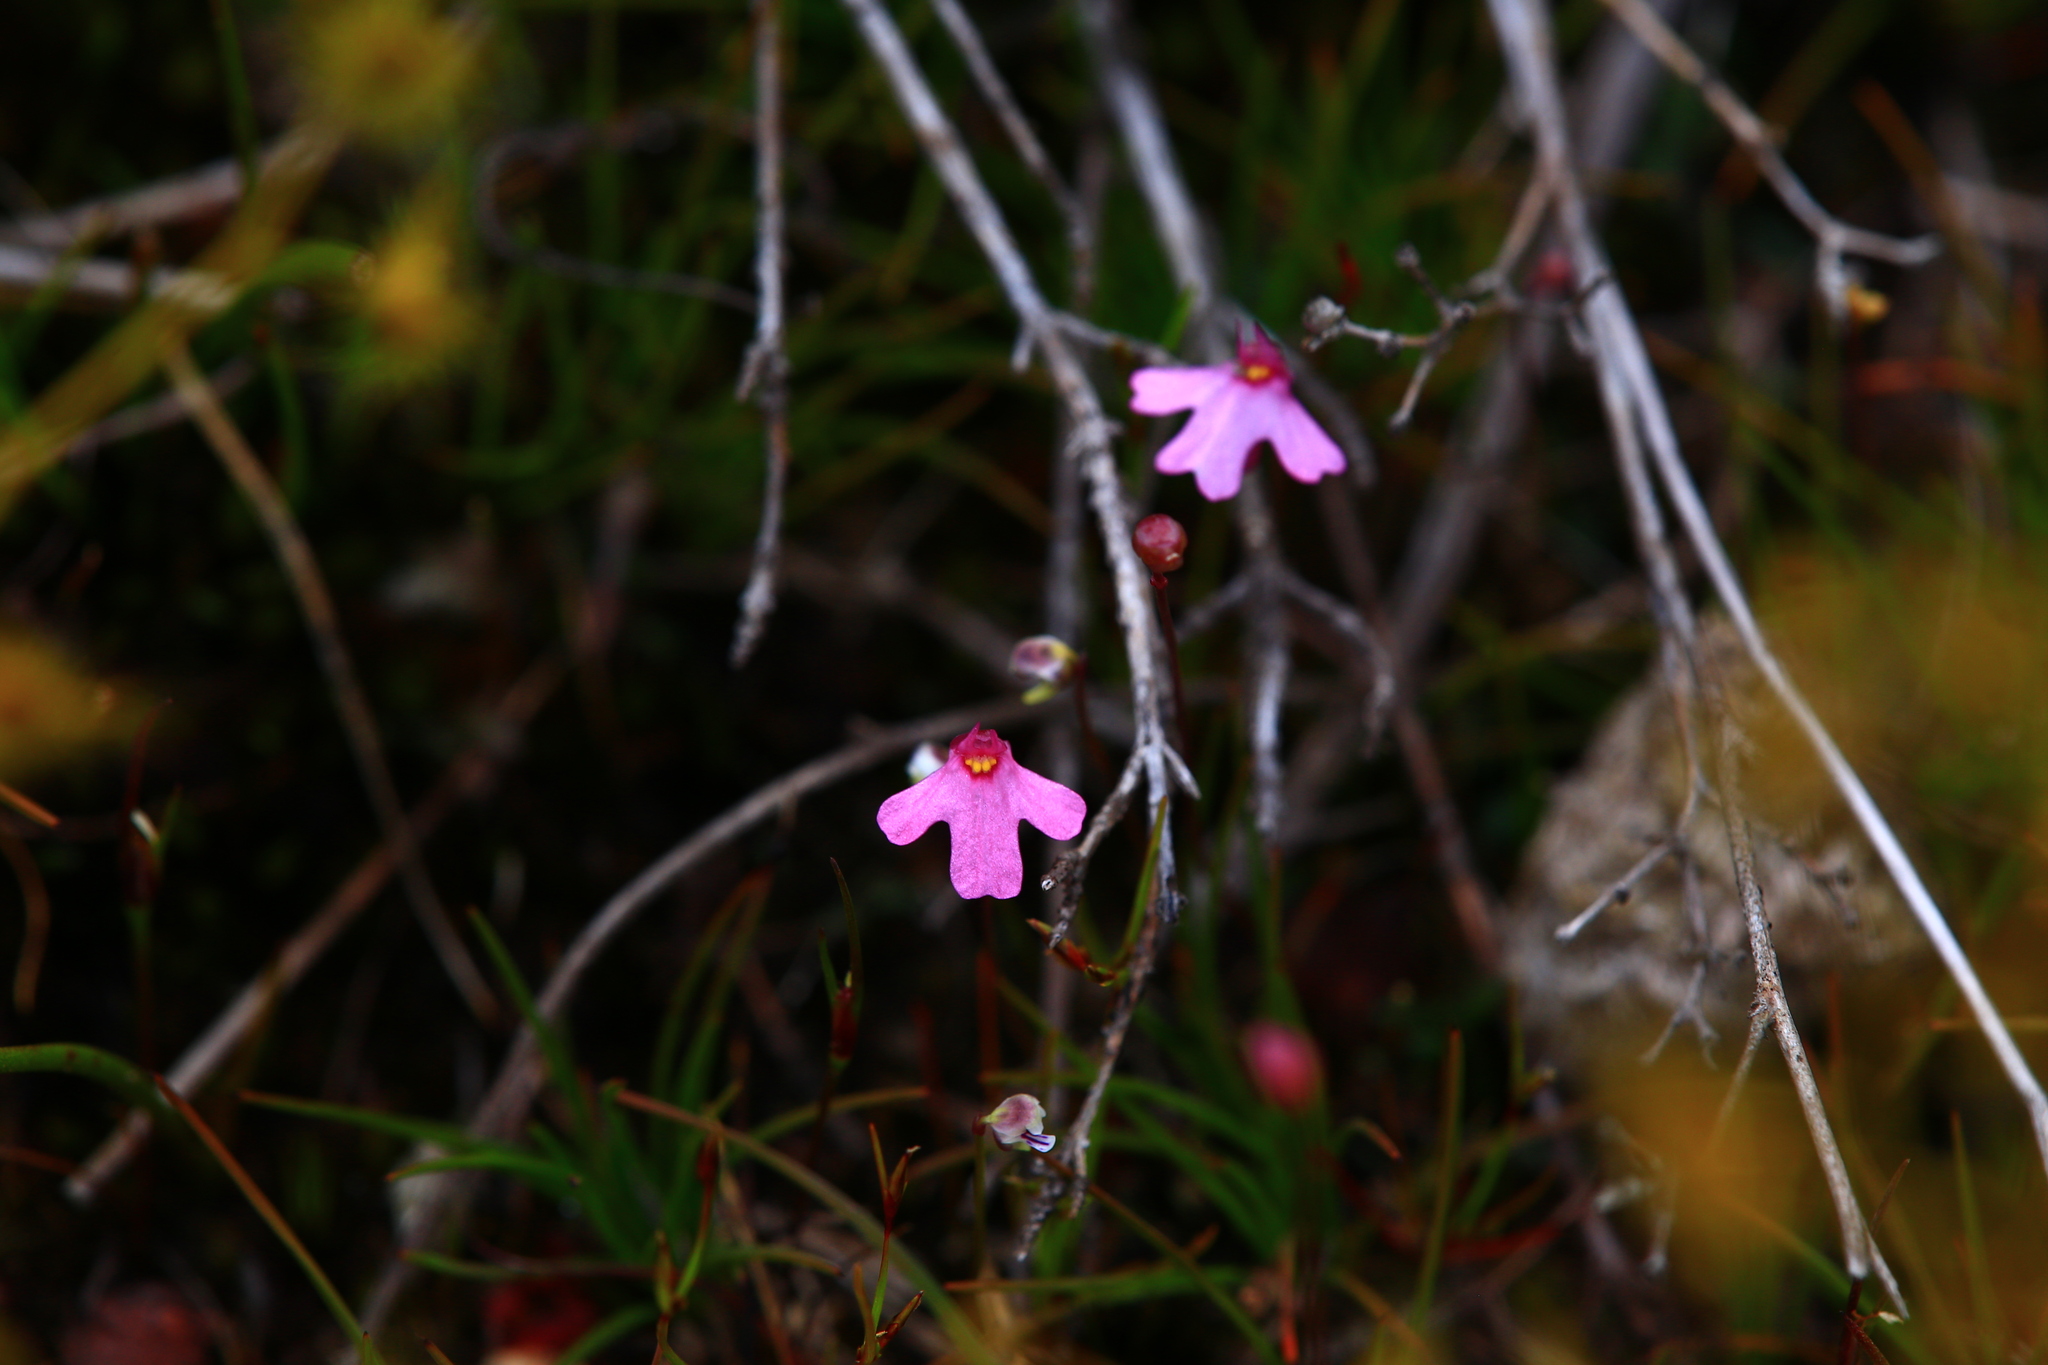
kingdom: Plantae
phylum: Tracheophyta
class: Magnoliopsida
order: Lamiales
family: Lentibulariaceae
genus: Utricularia
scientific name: Utricularia multifida
